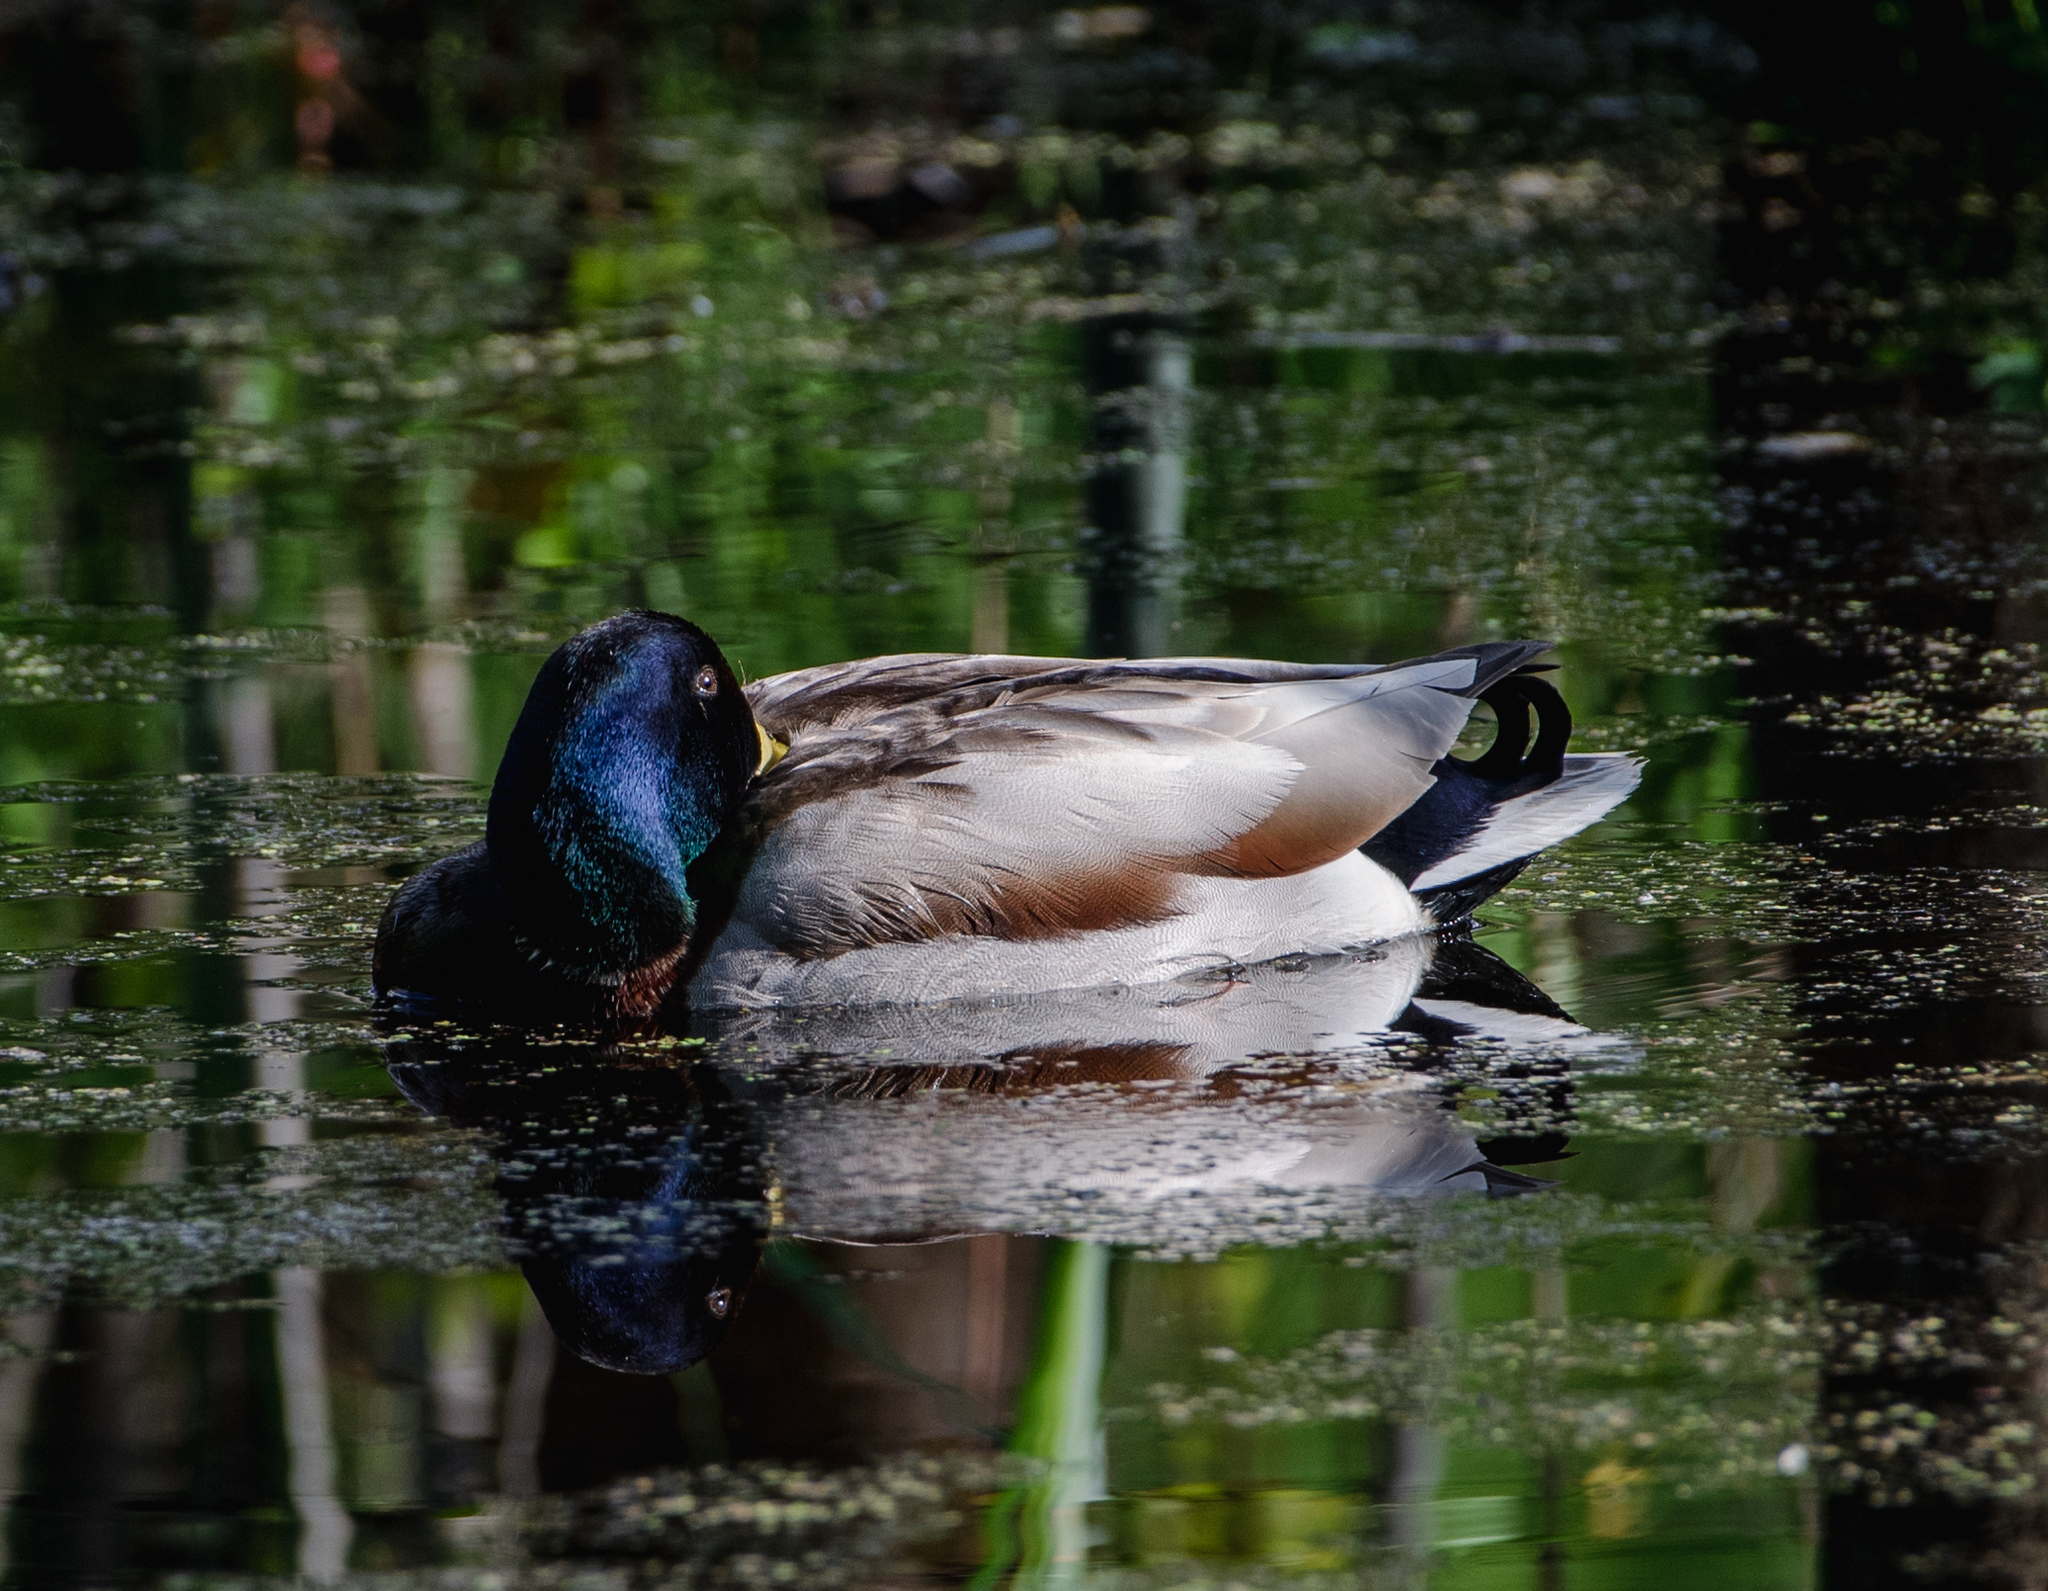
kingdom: Animalia
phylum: Chordata
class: Aves
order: Anseriformes
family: Anatidae
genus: Anas
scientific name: Anas platyrhynchos
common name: Mallard
